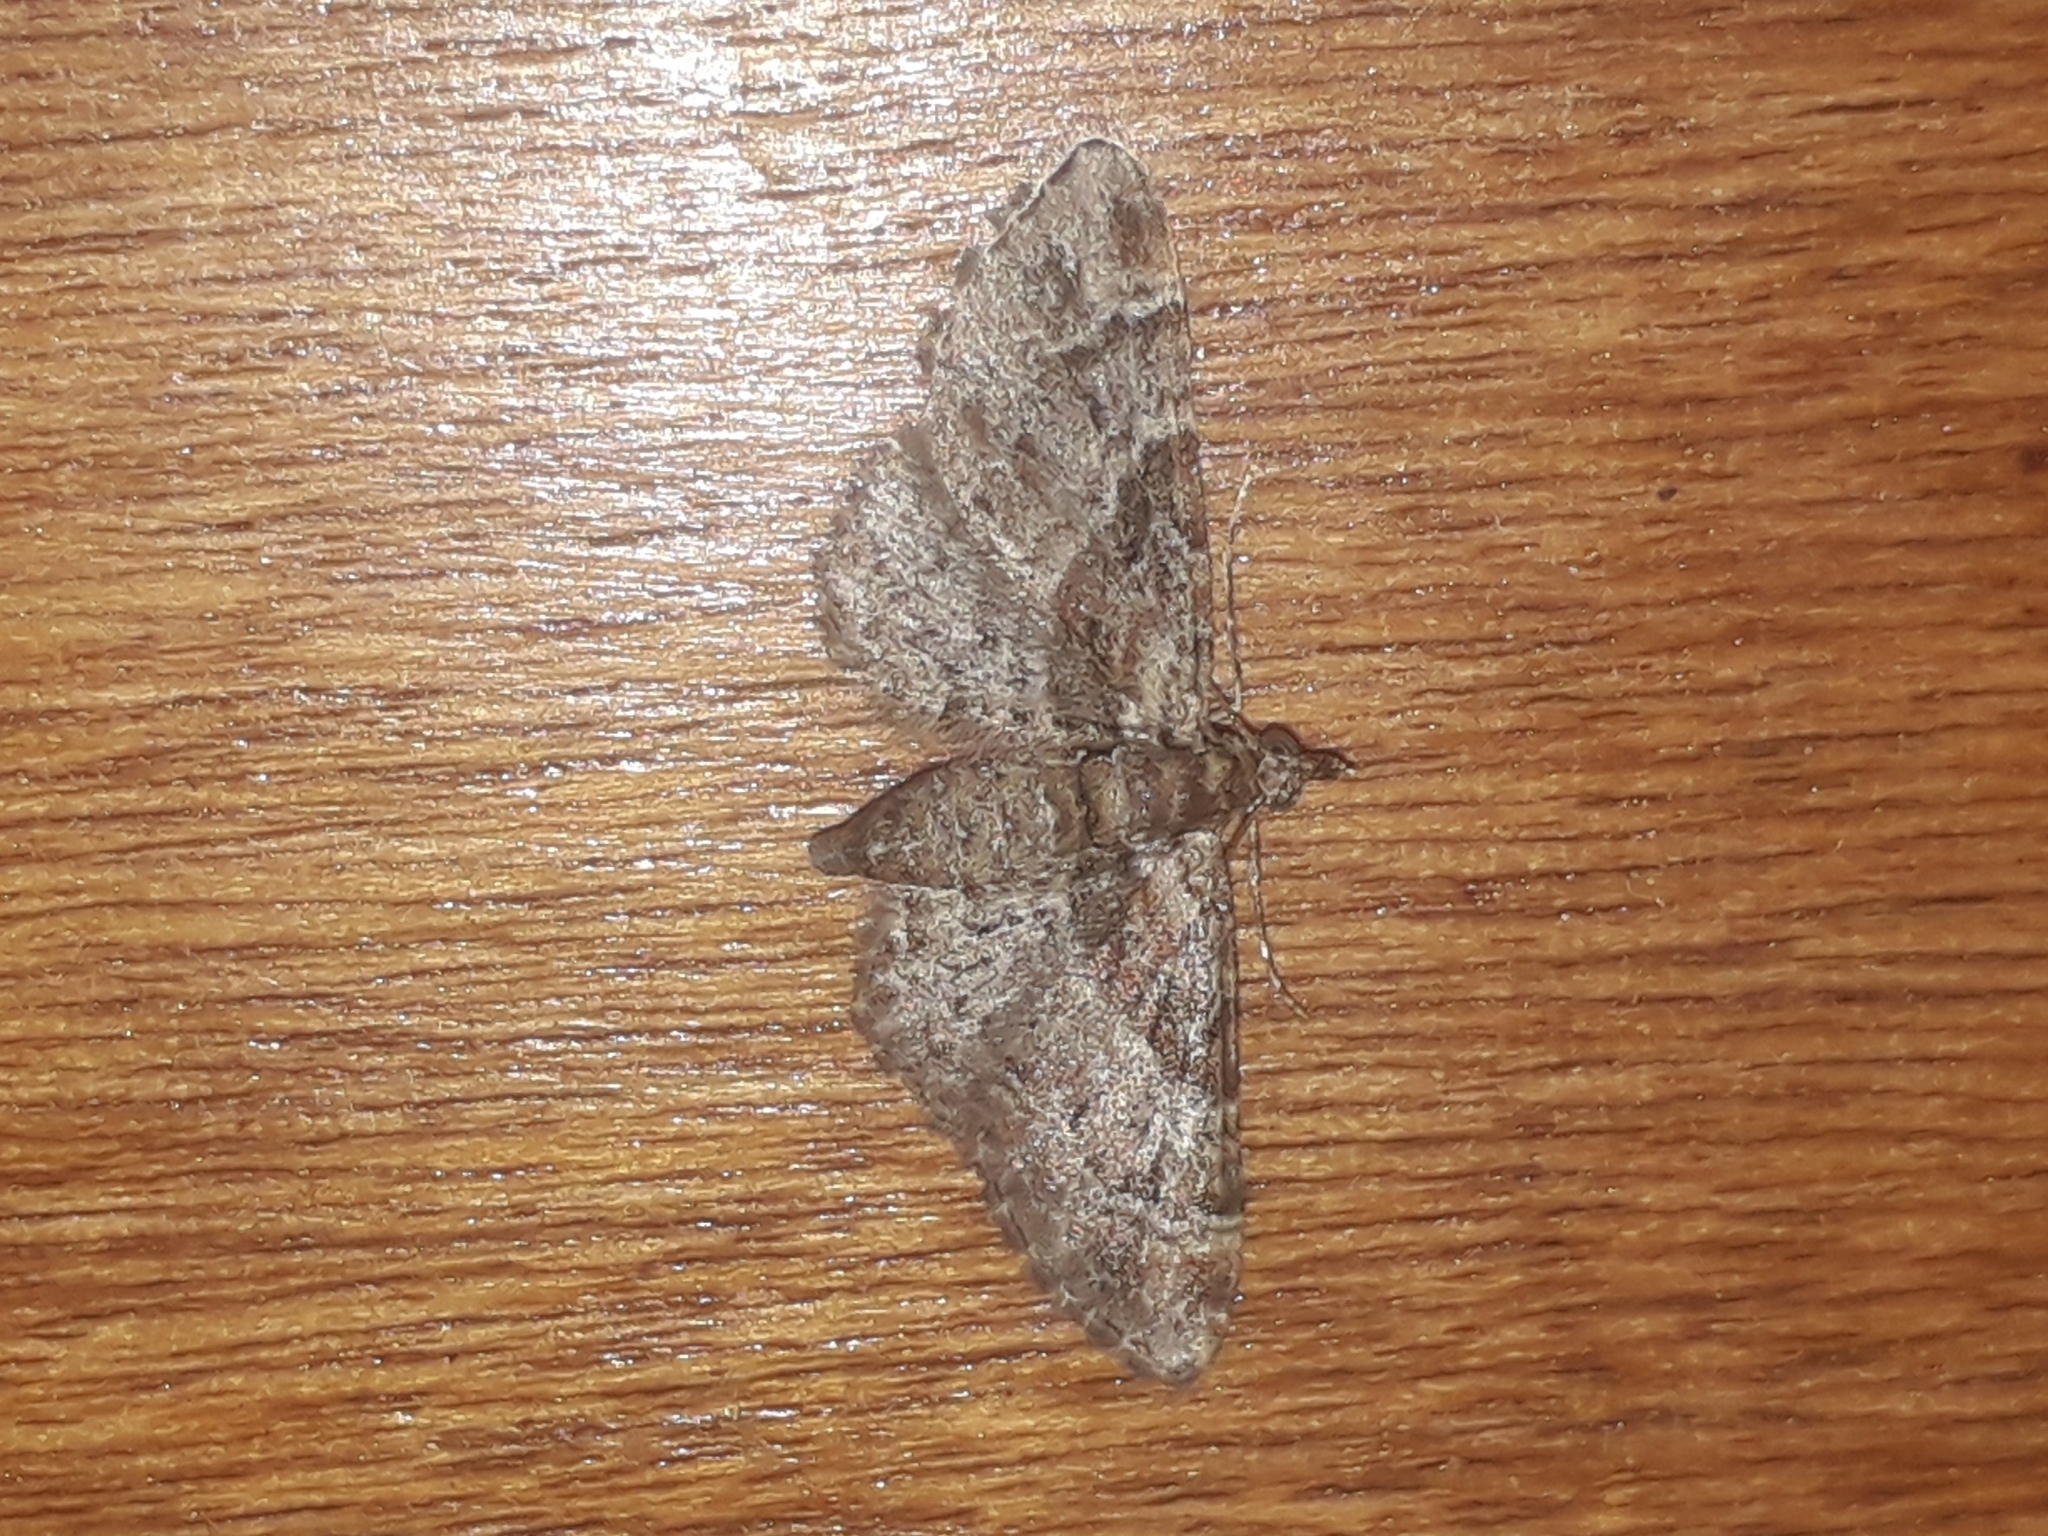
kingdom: Animalia
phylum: Arthropoda
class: Insecta
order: Lepidoptera
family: Geometridae
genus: Gymnoscelis
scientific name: Gymnoscelis rufifasciata
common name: Double-striped pug
